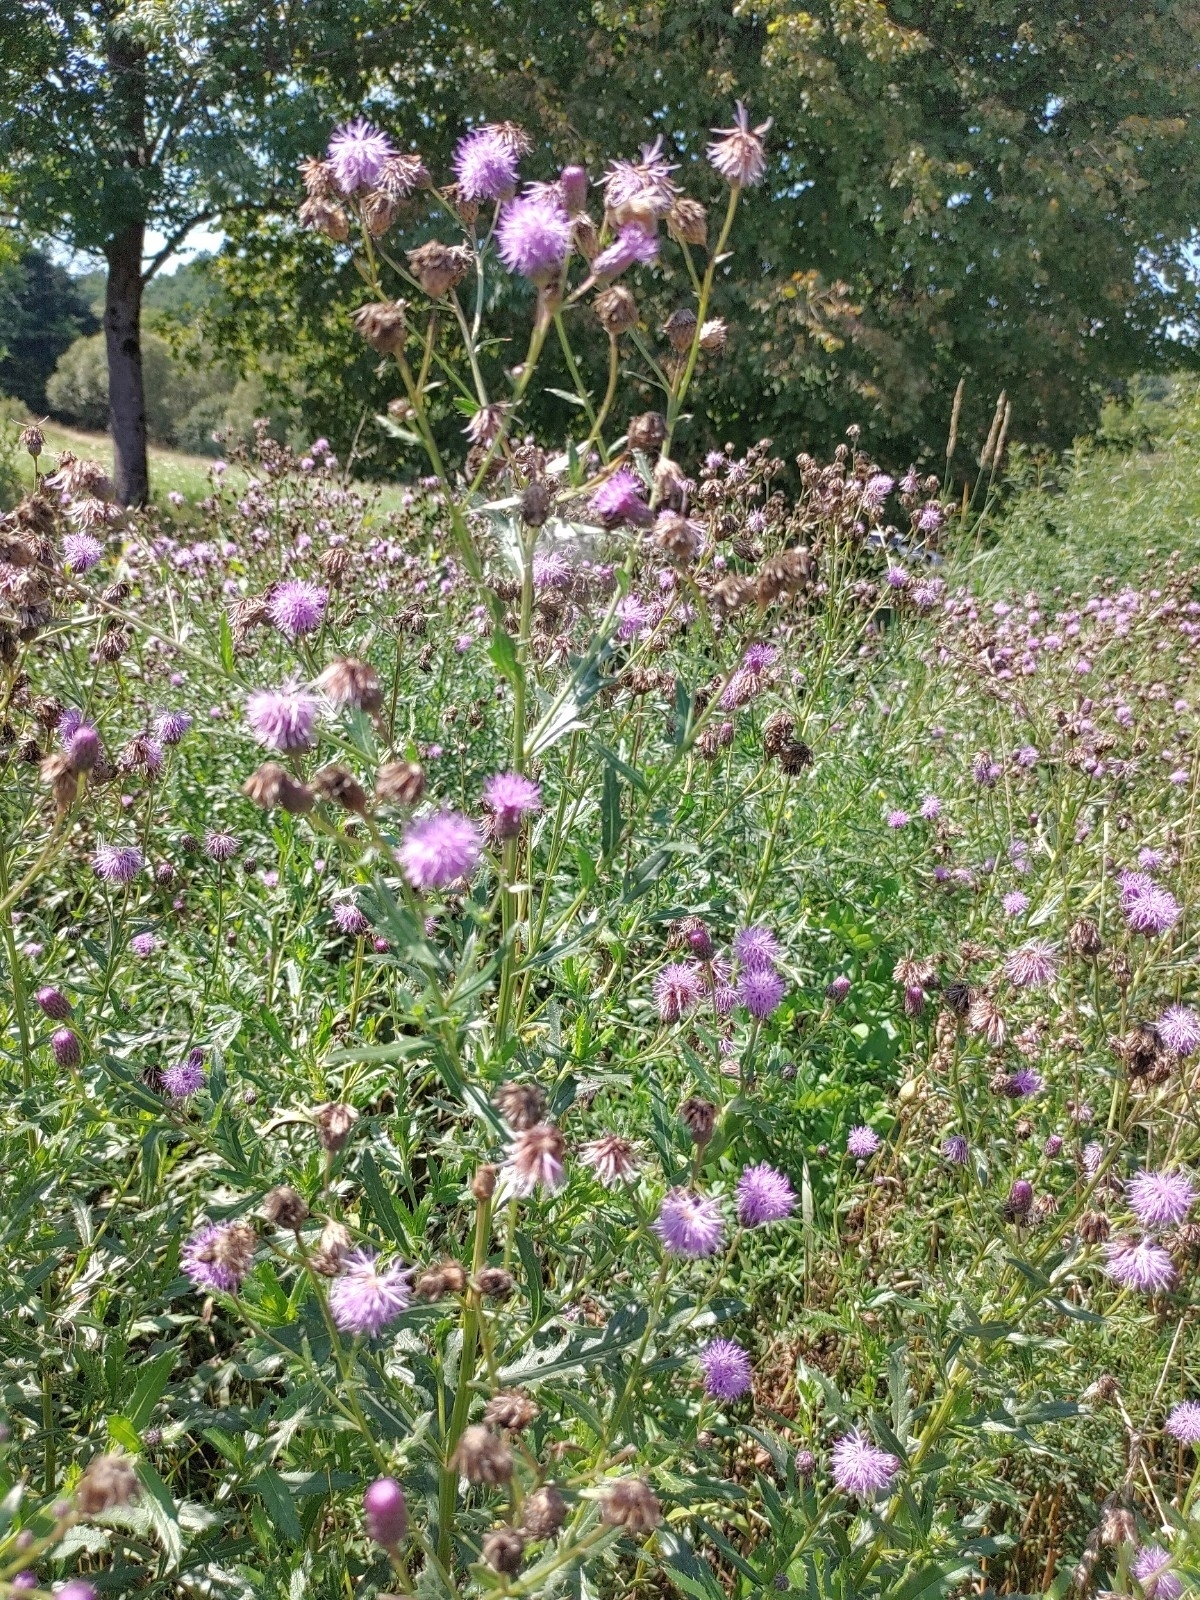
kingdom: Plantae
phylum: Tracheophyta
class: Magnoliopsida
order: Asterales
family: Asteraceae
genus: Cirsium
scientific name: Cirsium arvense
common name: Creeping thistle
